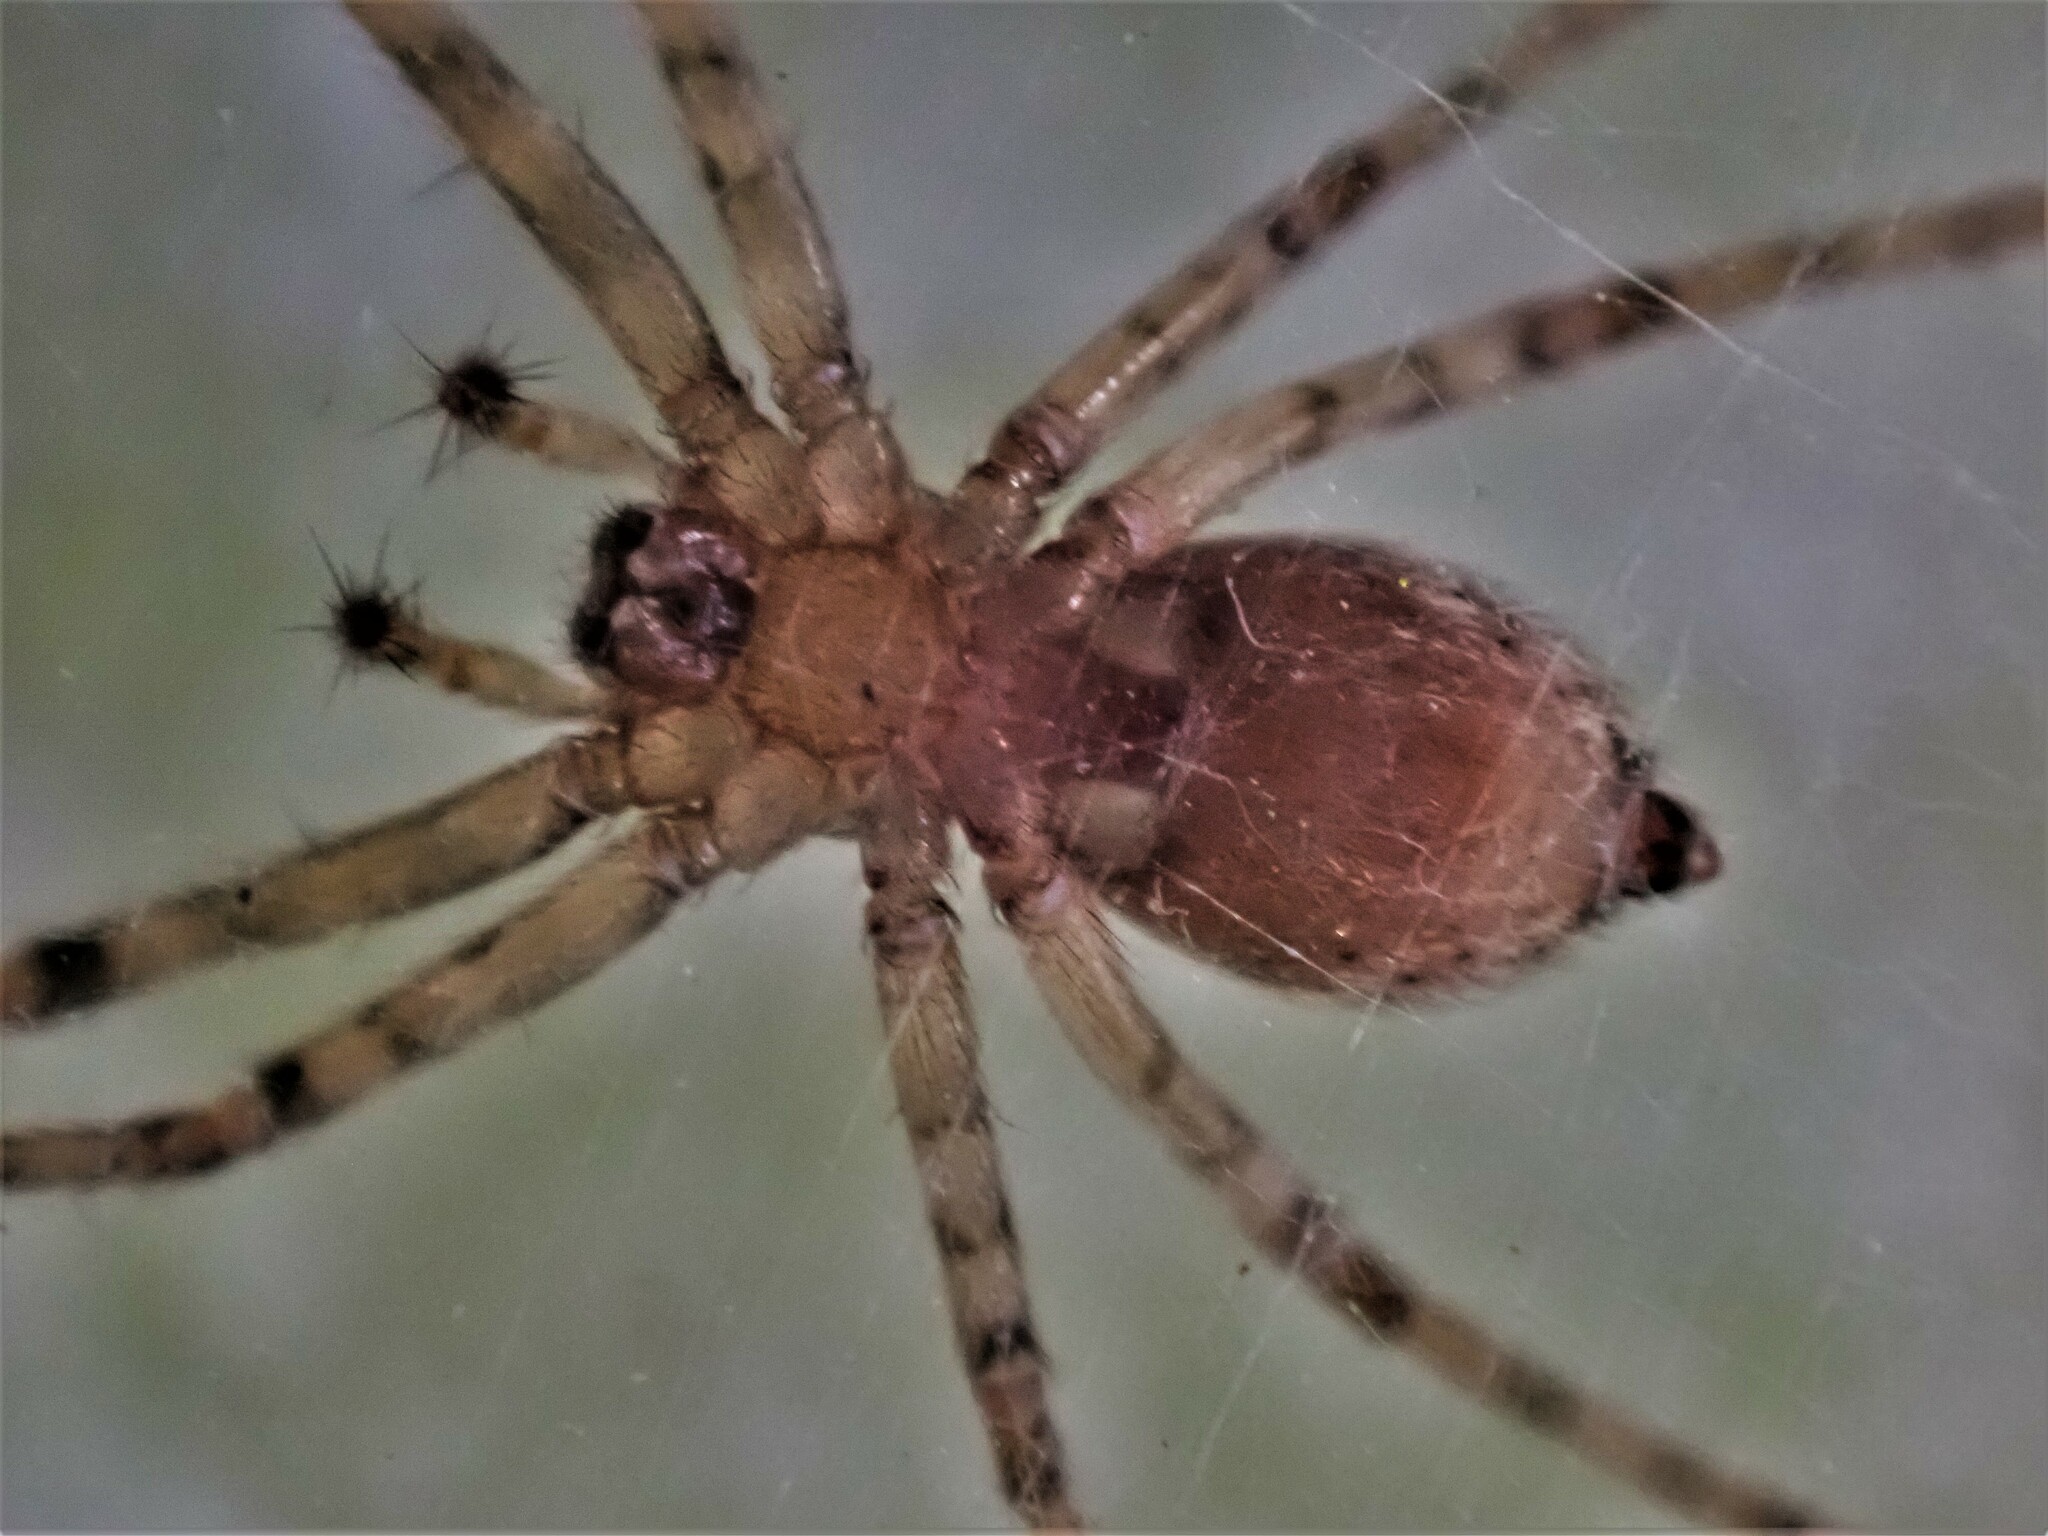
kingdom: Animalia
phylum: Arthropoda
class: Arachnida
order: Araneae
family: Stiphidiidae
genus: Stiphidion
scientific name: Stiphidion facetum
